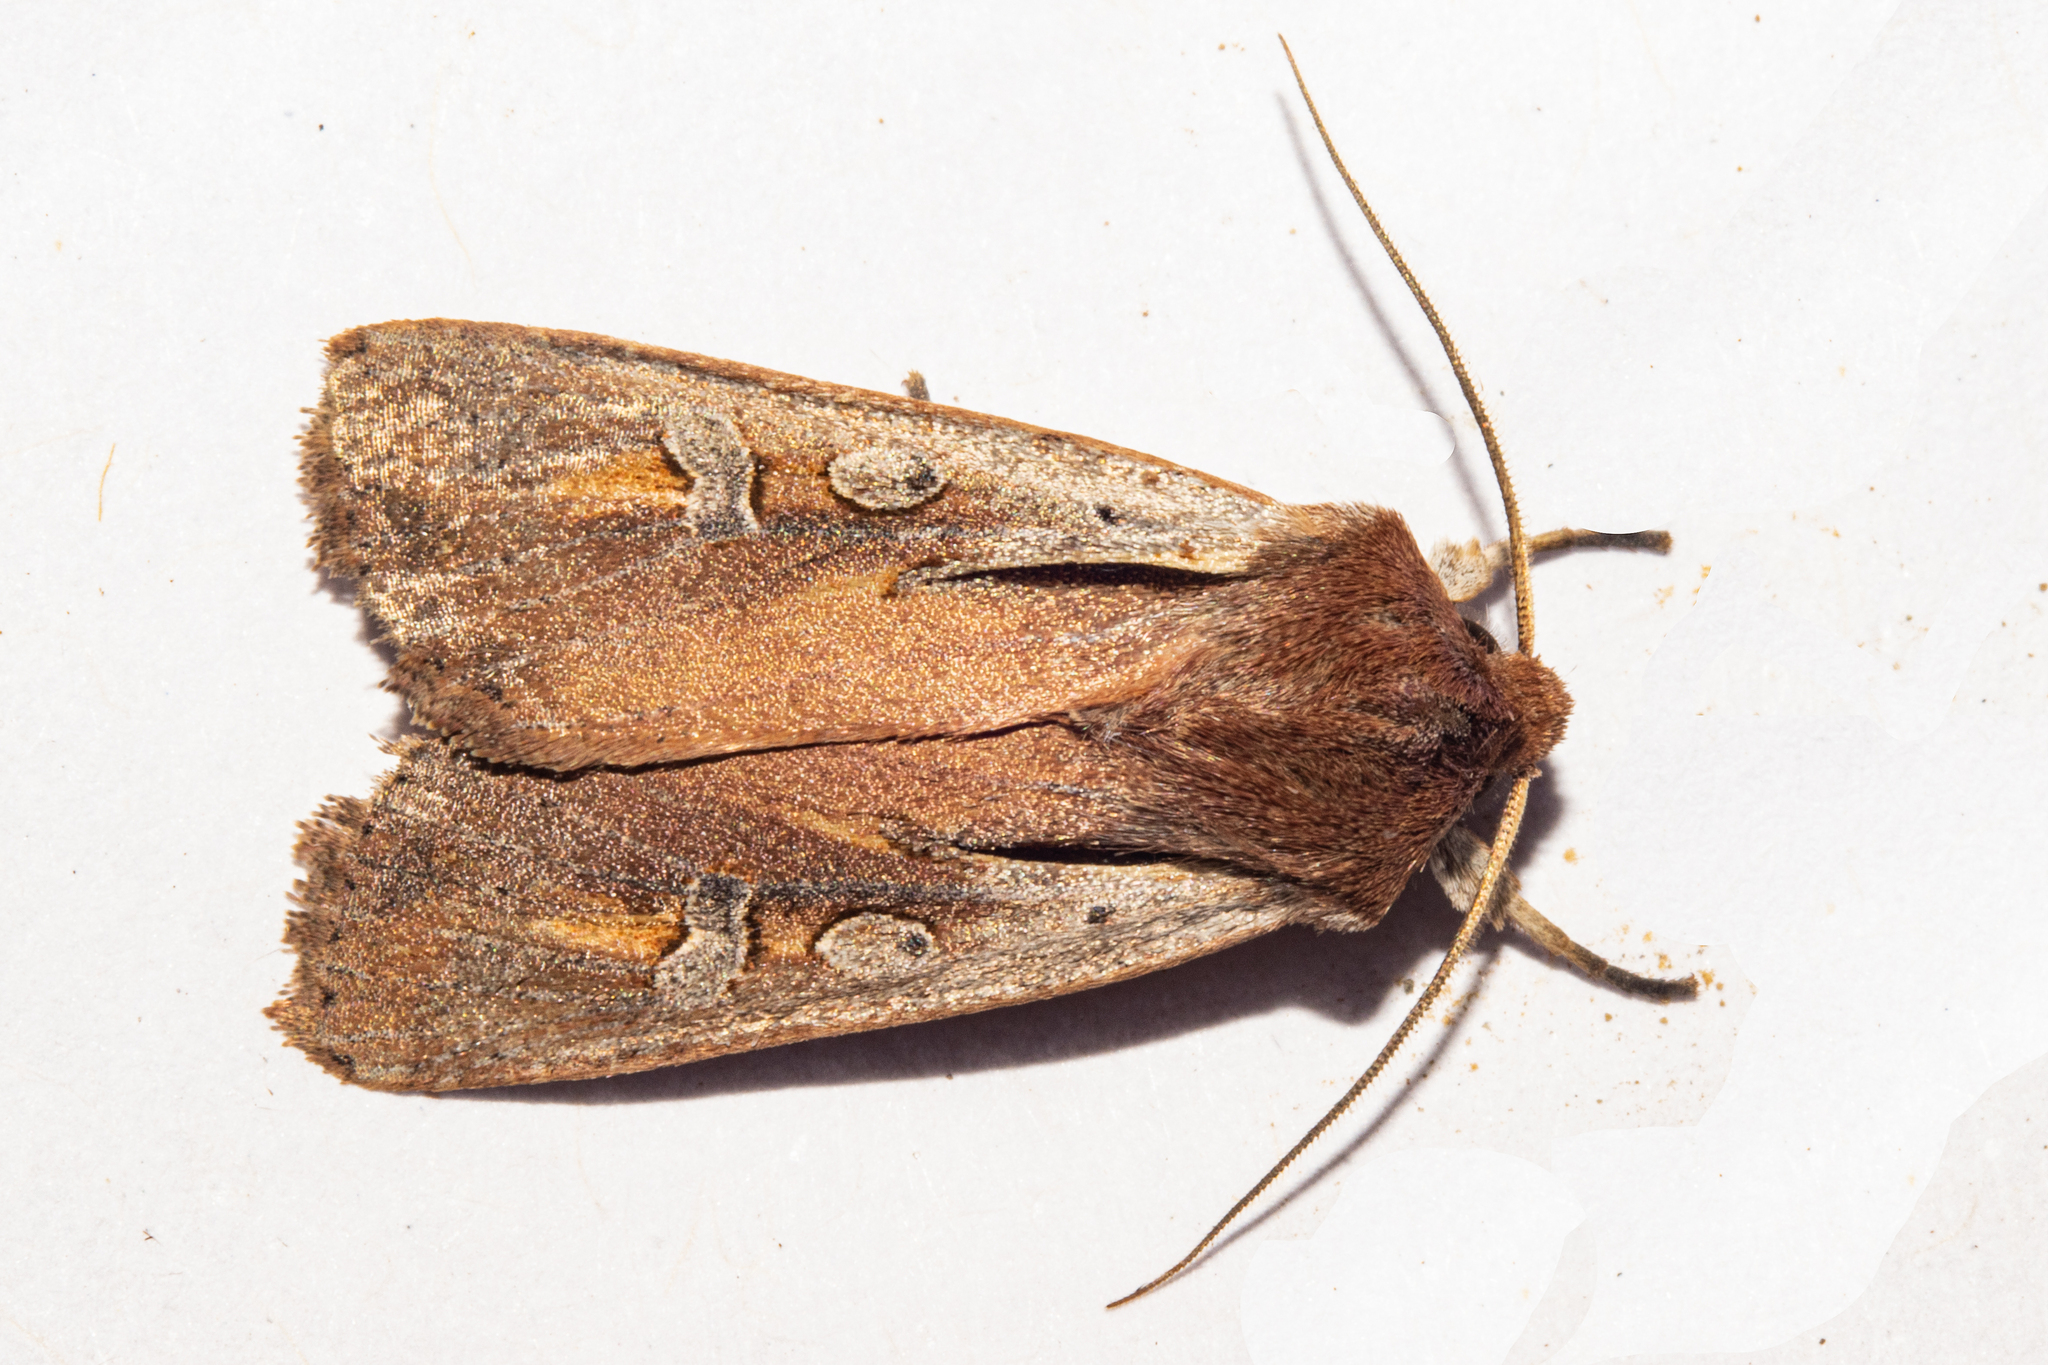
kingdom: Animalia
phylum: Arthropoda
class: Insecta
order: Lepidoptera
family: Noctuidae
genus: Ichneutica
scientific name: Ichneutica atristriga
